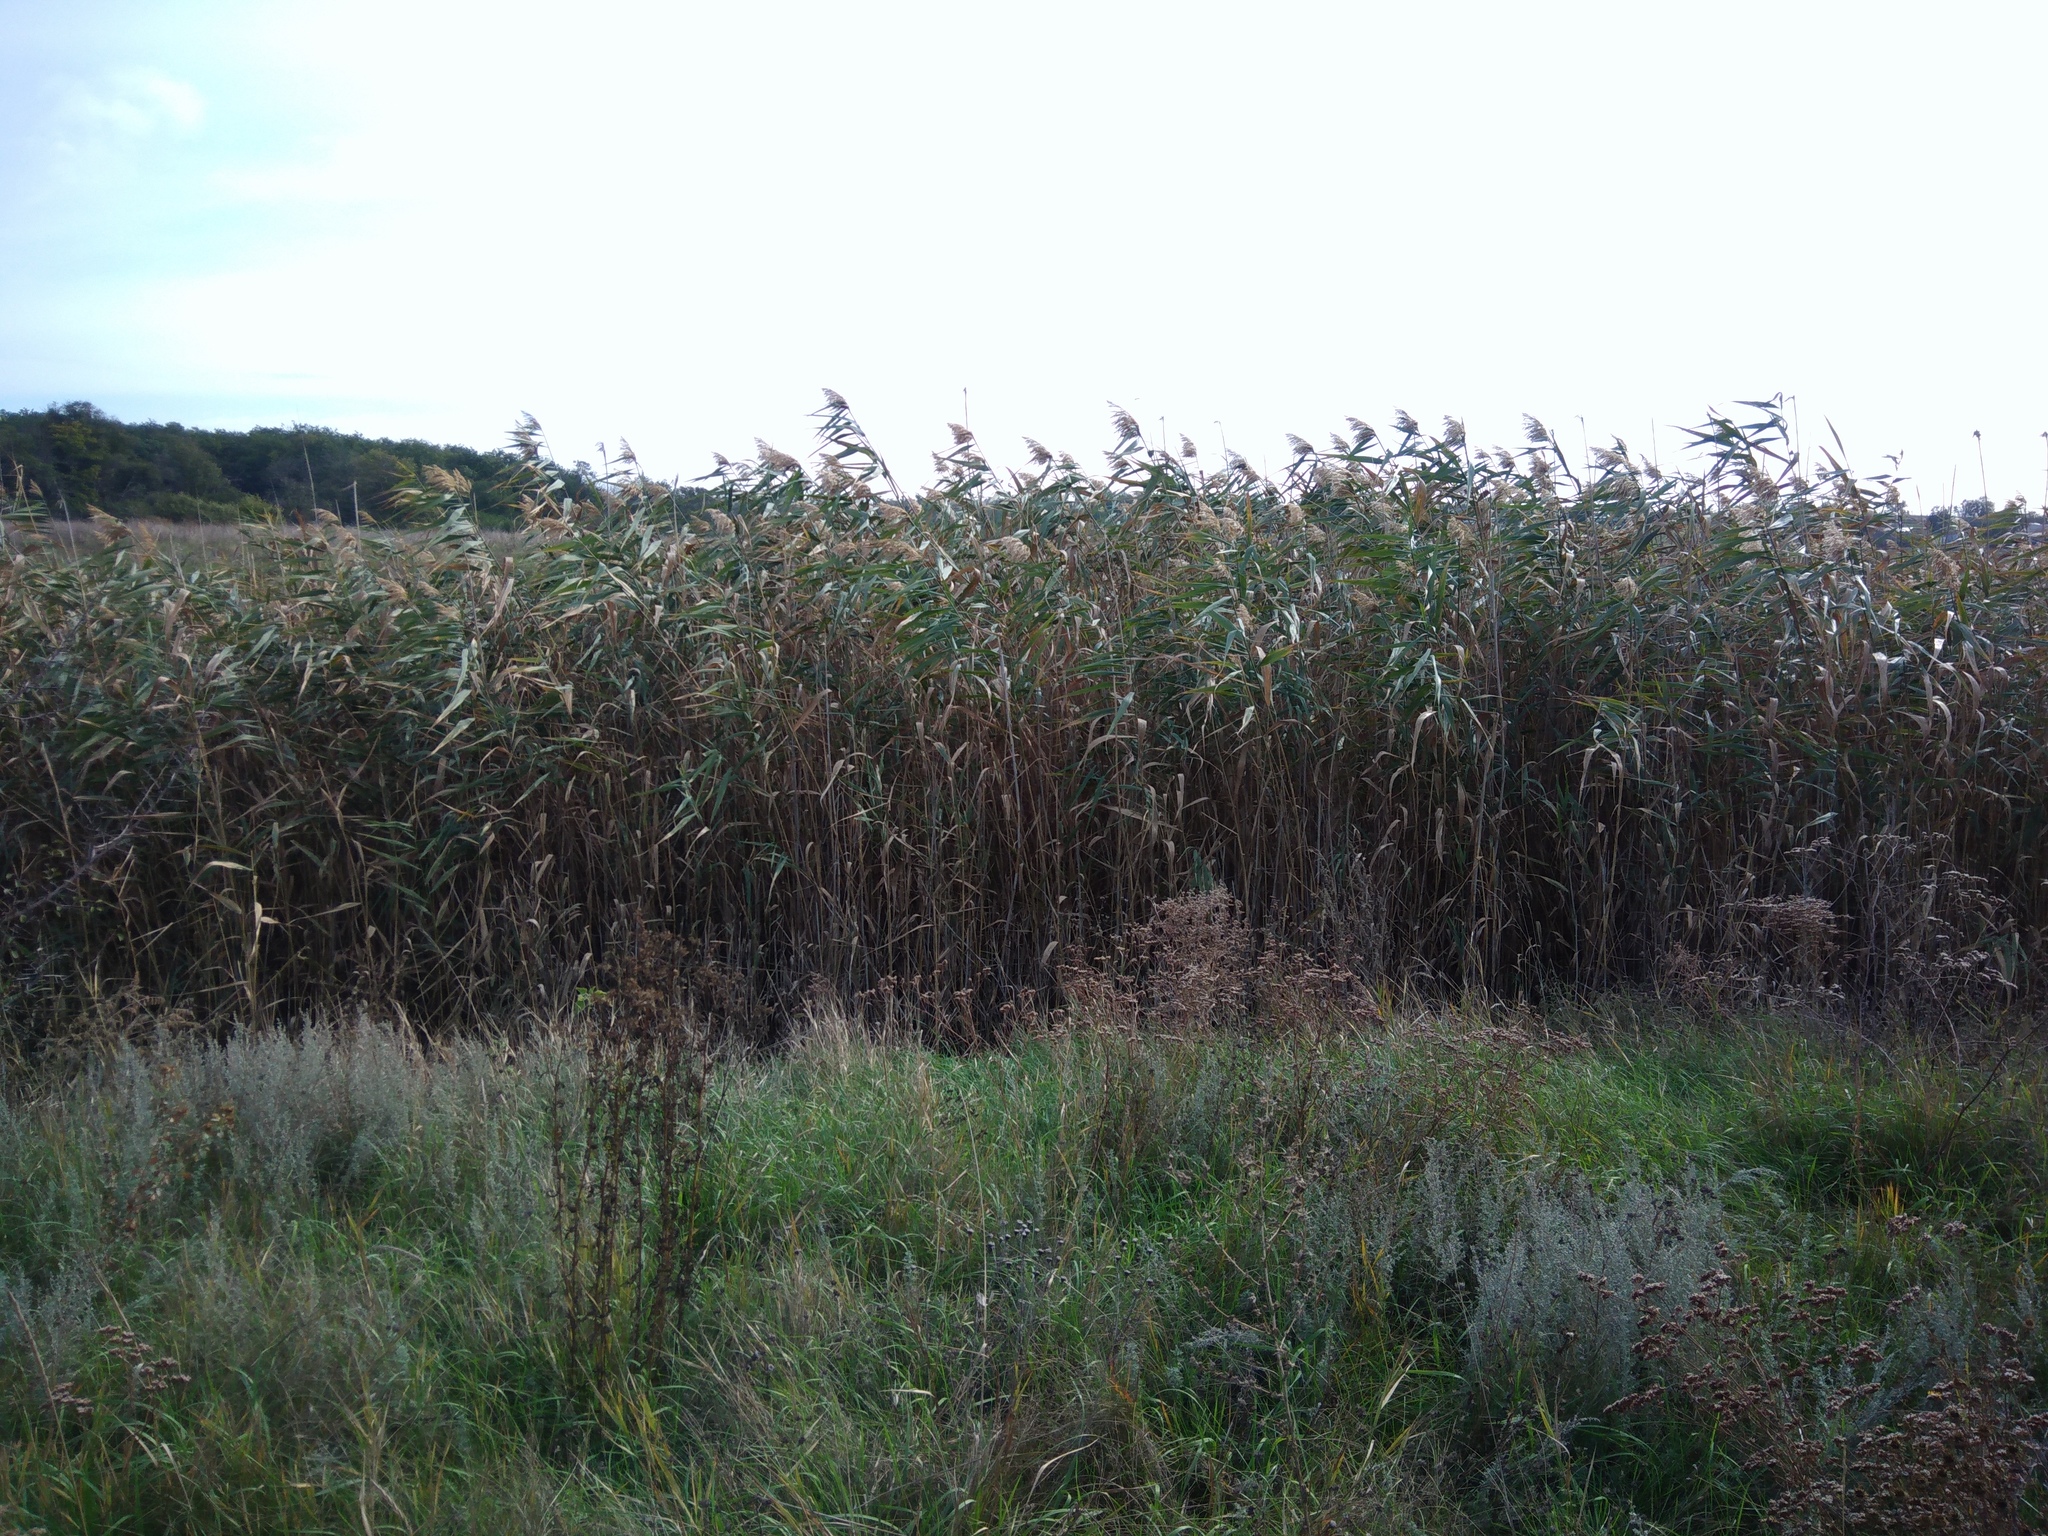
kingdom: Plantae
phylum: Tracheophyta
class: Liliopsida
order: Poales
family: Poaceae
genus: Phragmites
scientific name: Phragmites australis
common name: Common reed
